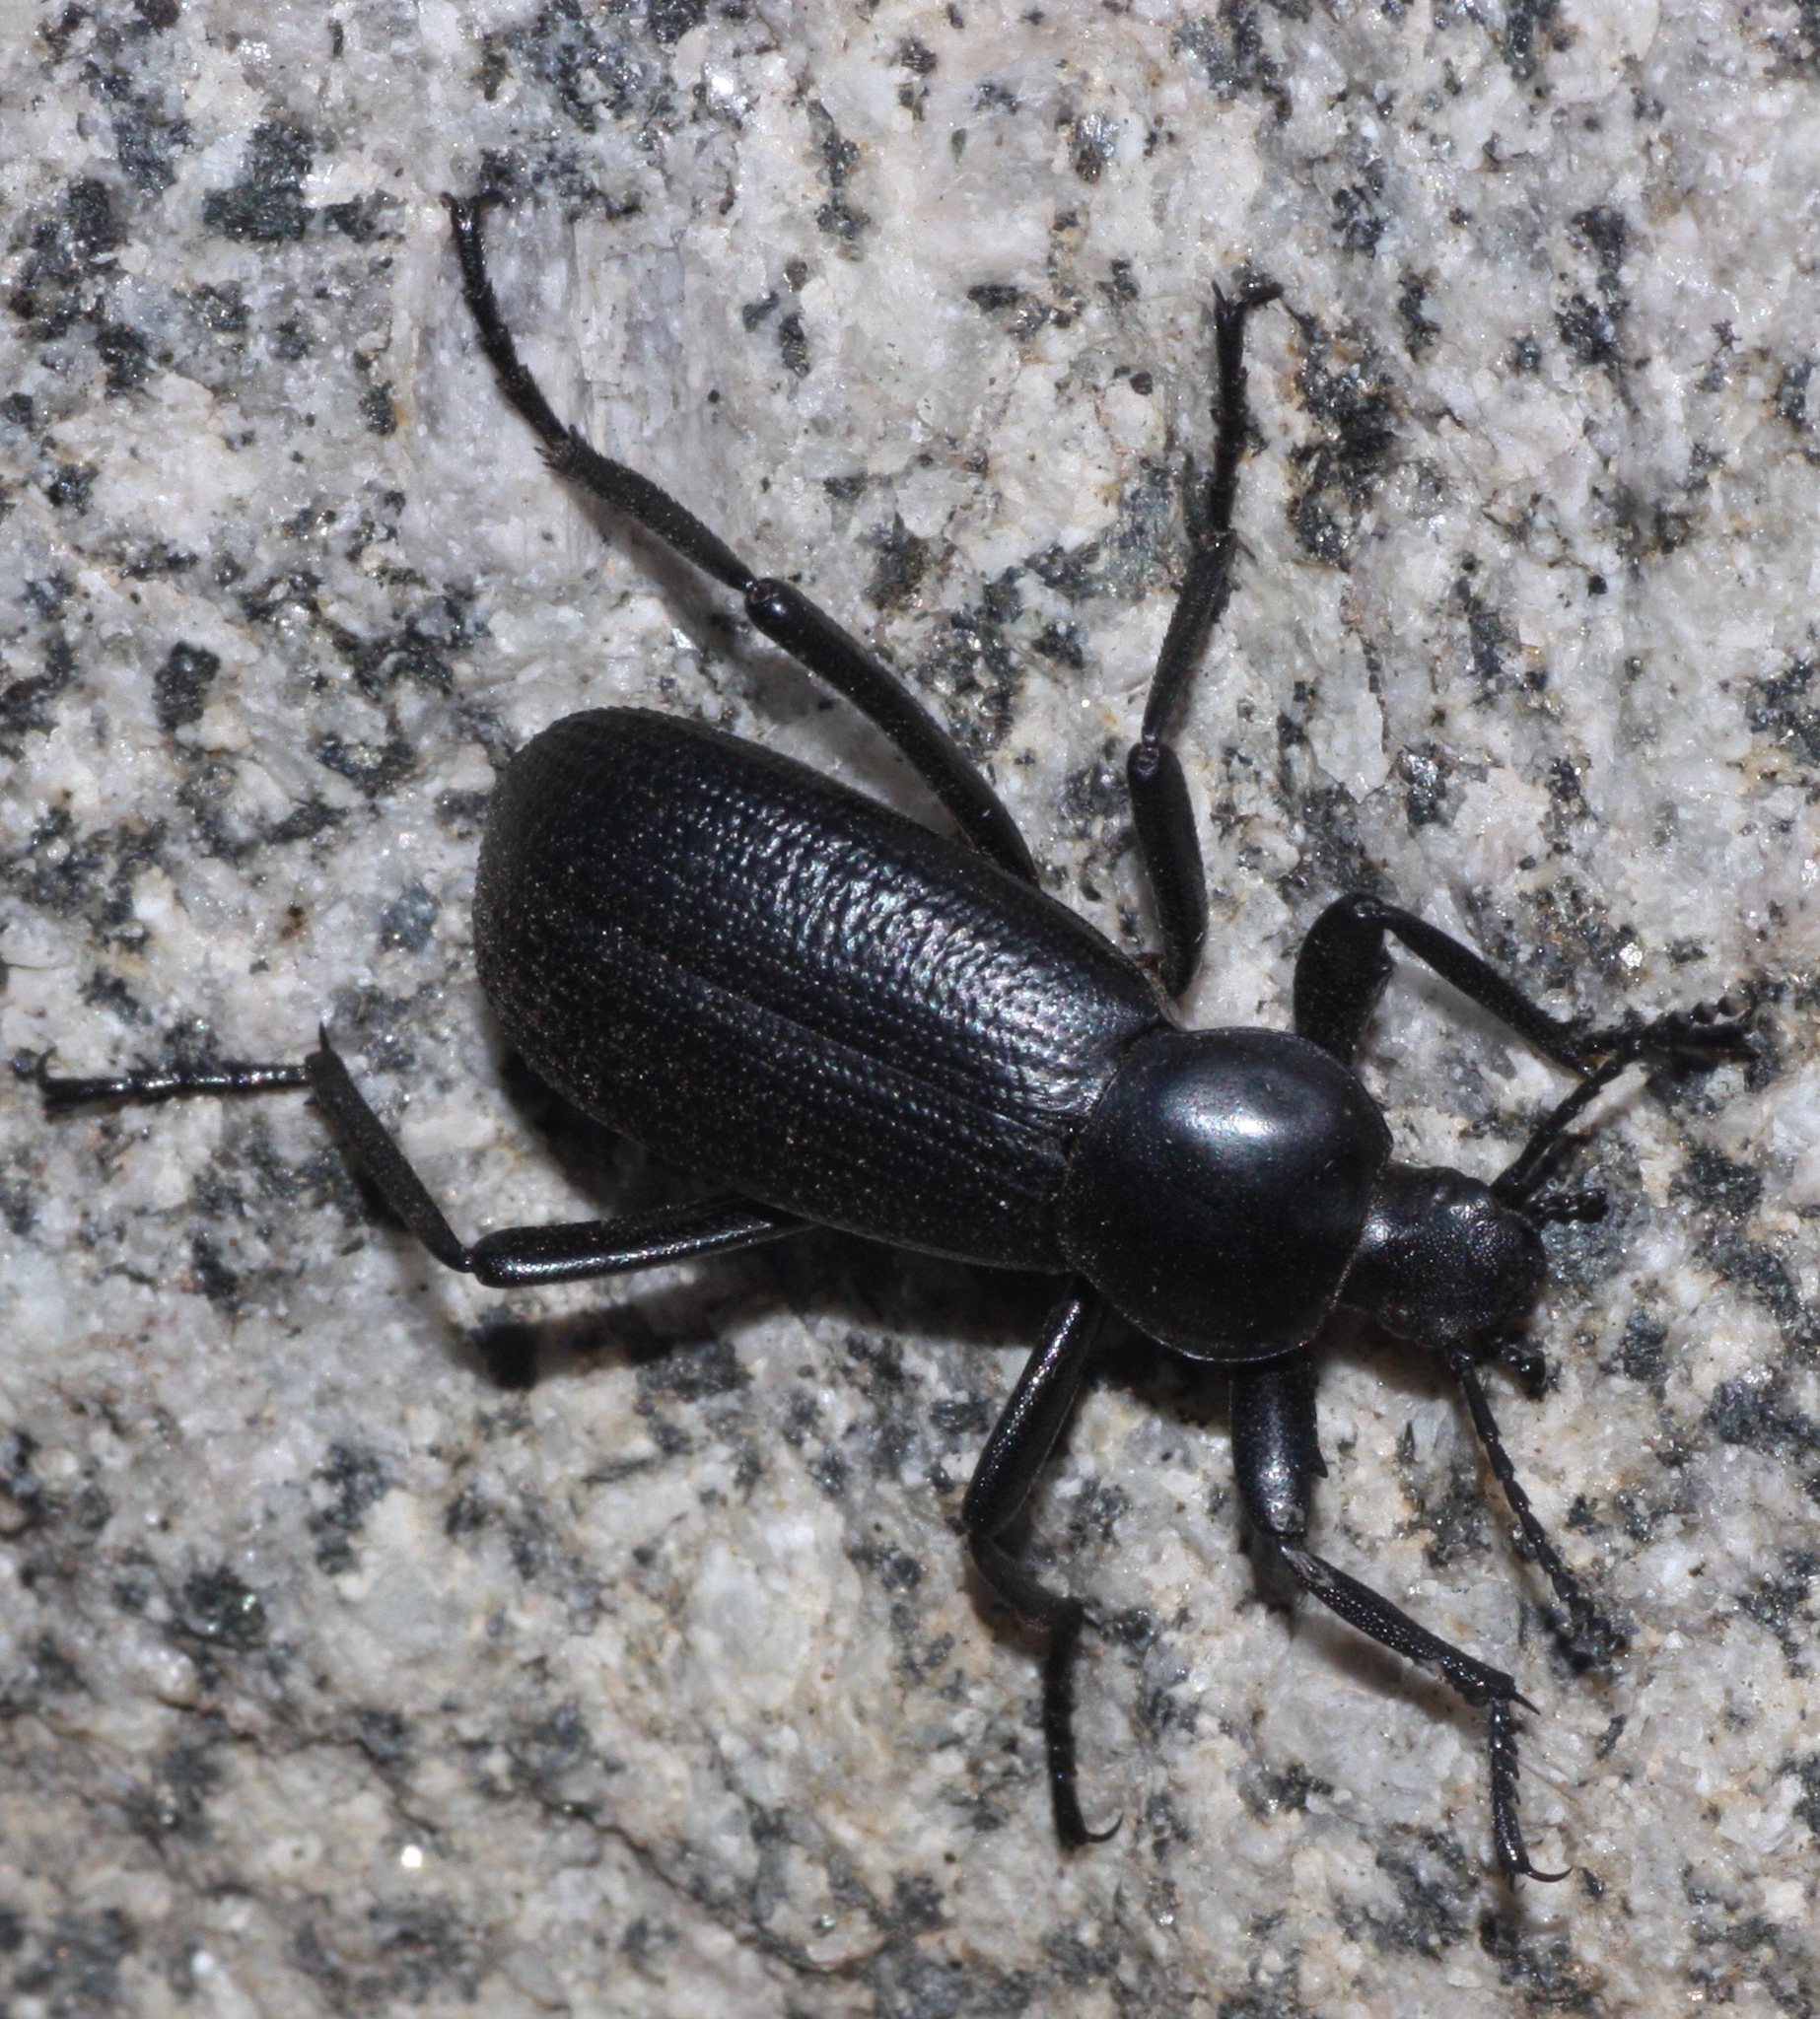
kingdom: Animalia
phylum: Arthropoda
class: Insecta
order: Coleoptera
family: Tenebrionidae
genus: Eleodes
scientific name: Eleodes obscura
